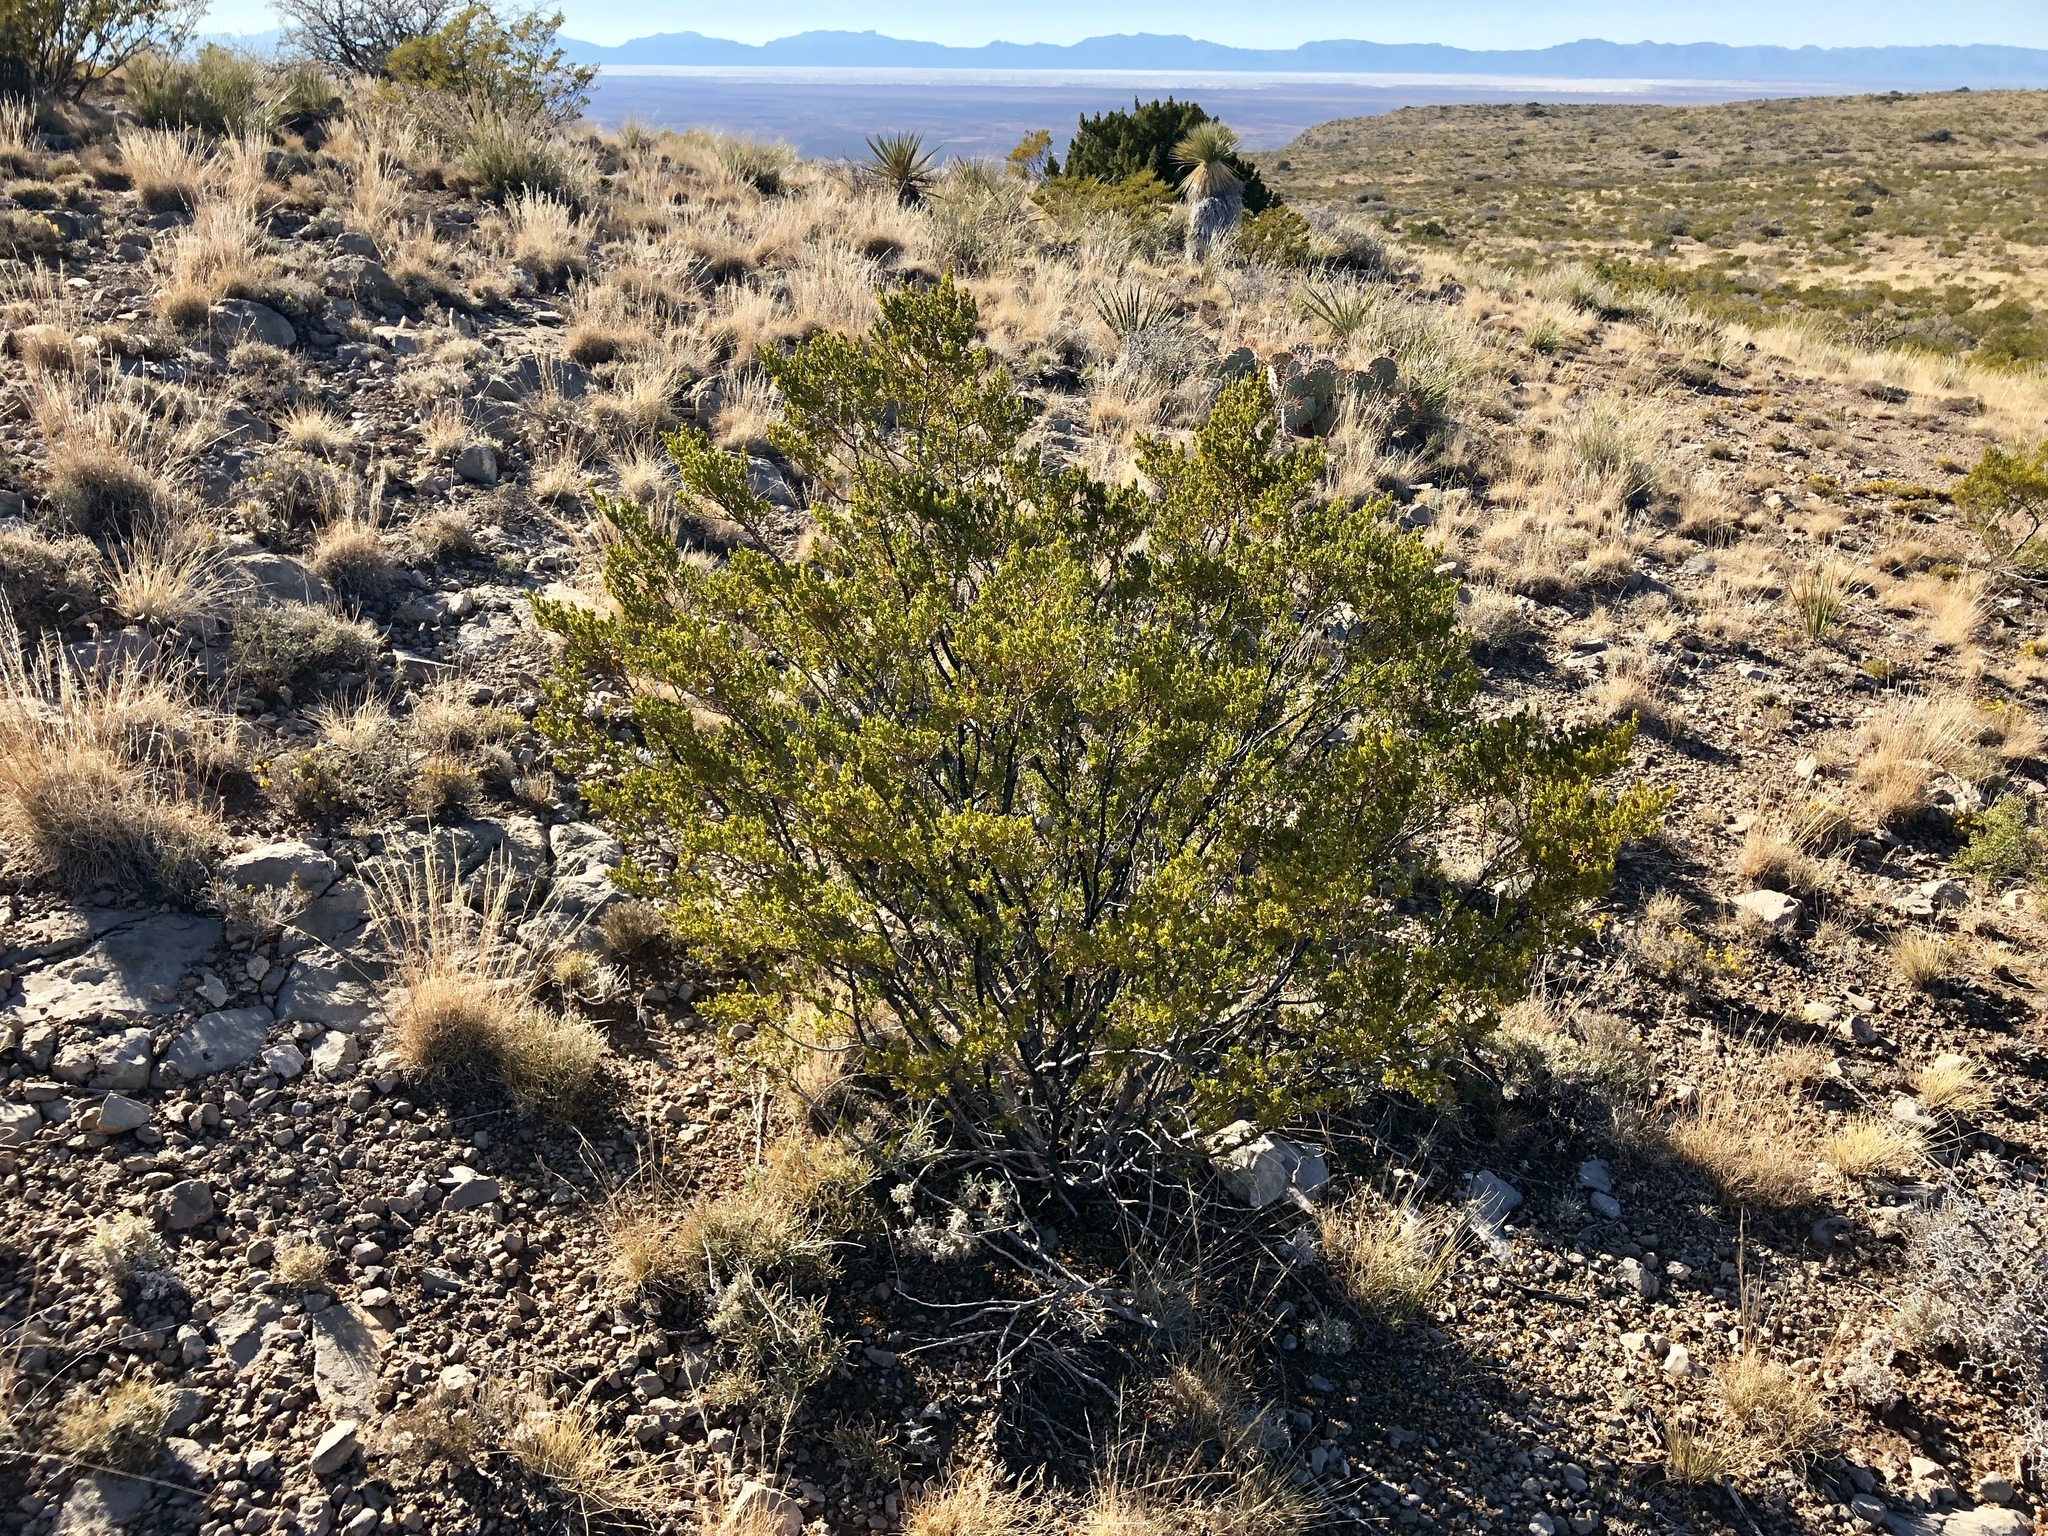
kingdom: Plantae
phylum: Tracheophyta
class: Magnoliopsida
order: Zygophyllales
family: Zygophyllaceae
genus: Larrea
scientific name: Larrea tridentata
